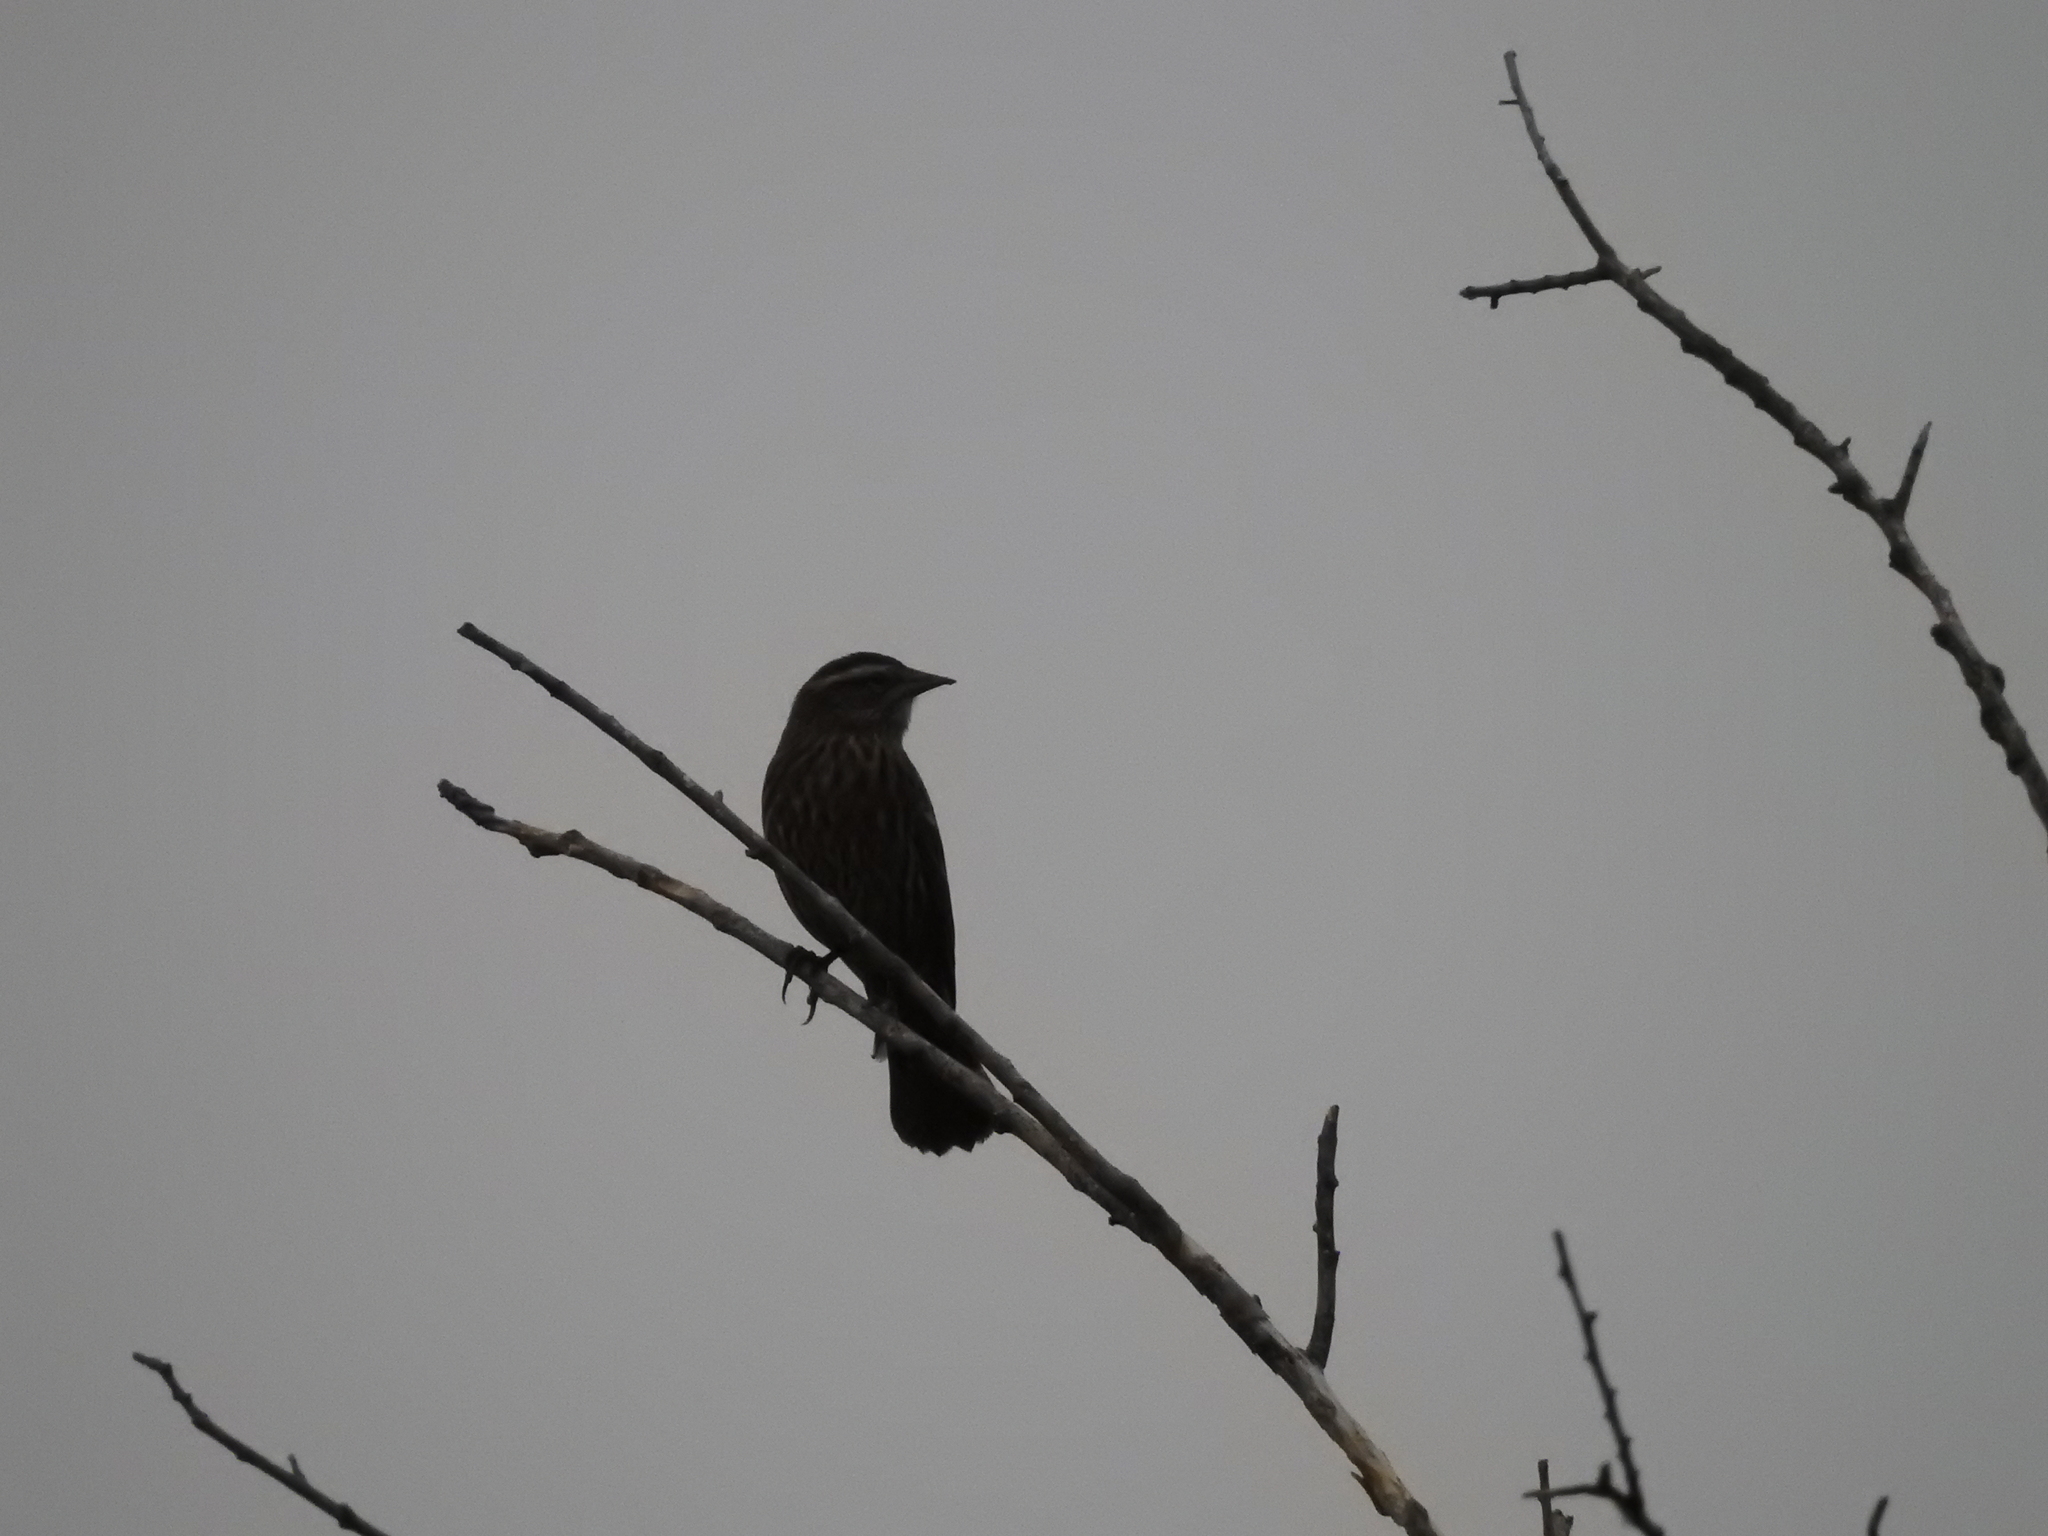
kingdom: Animalia
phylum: Chordata
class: Aves
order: Passeriformes
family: Icteridae
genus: Agelaius
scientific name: Agelaius phoeniceus
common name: Red-winged blackbird
